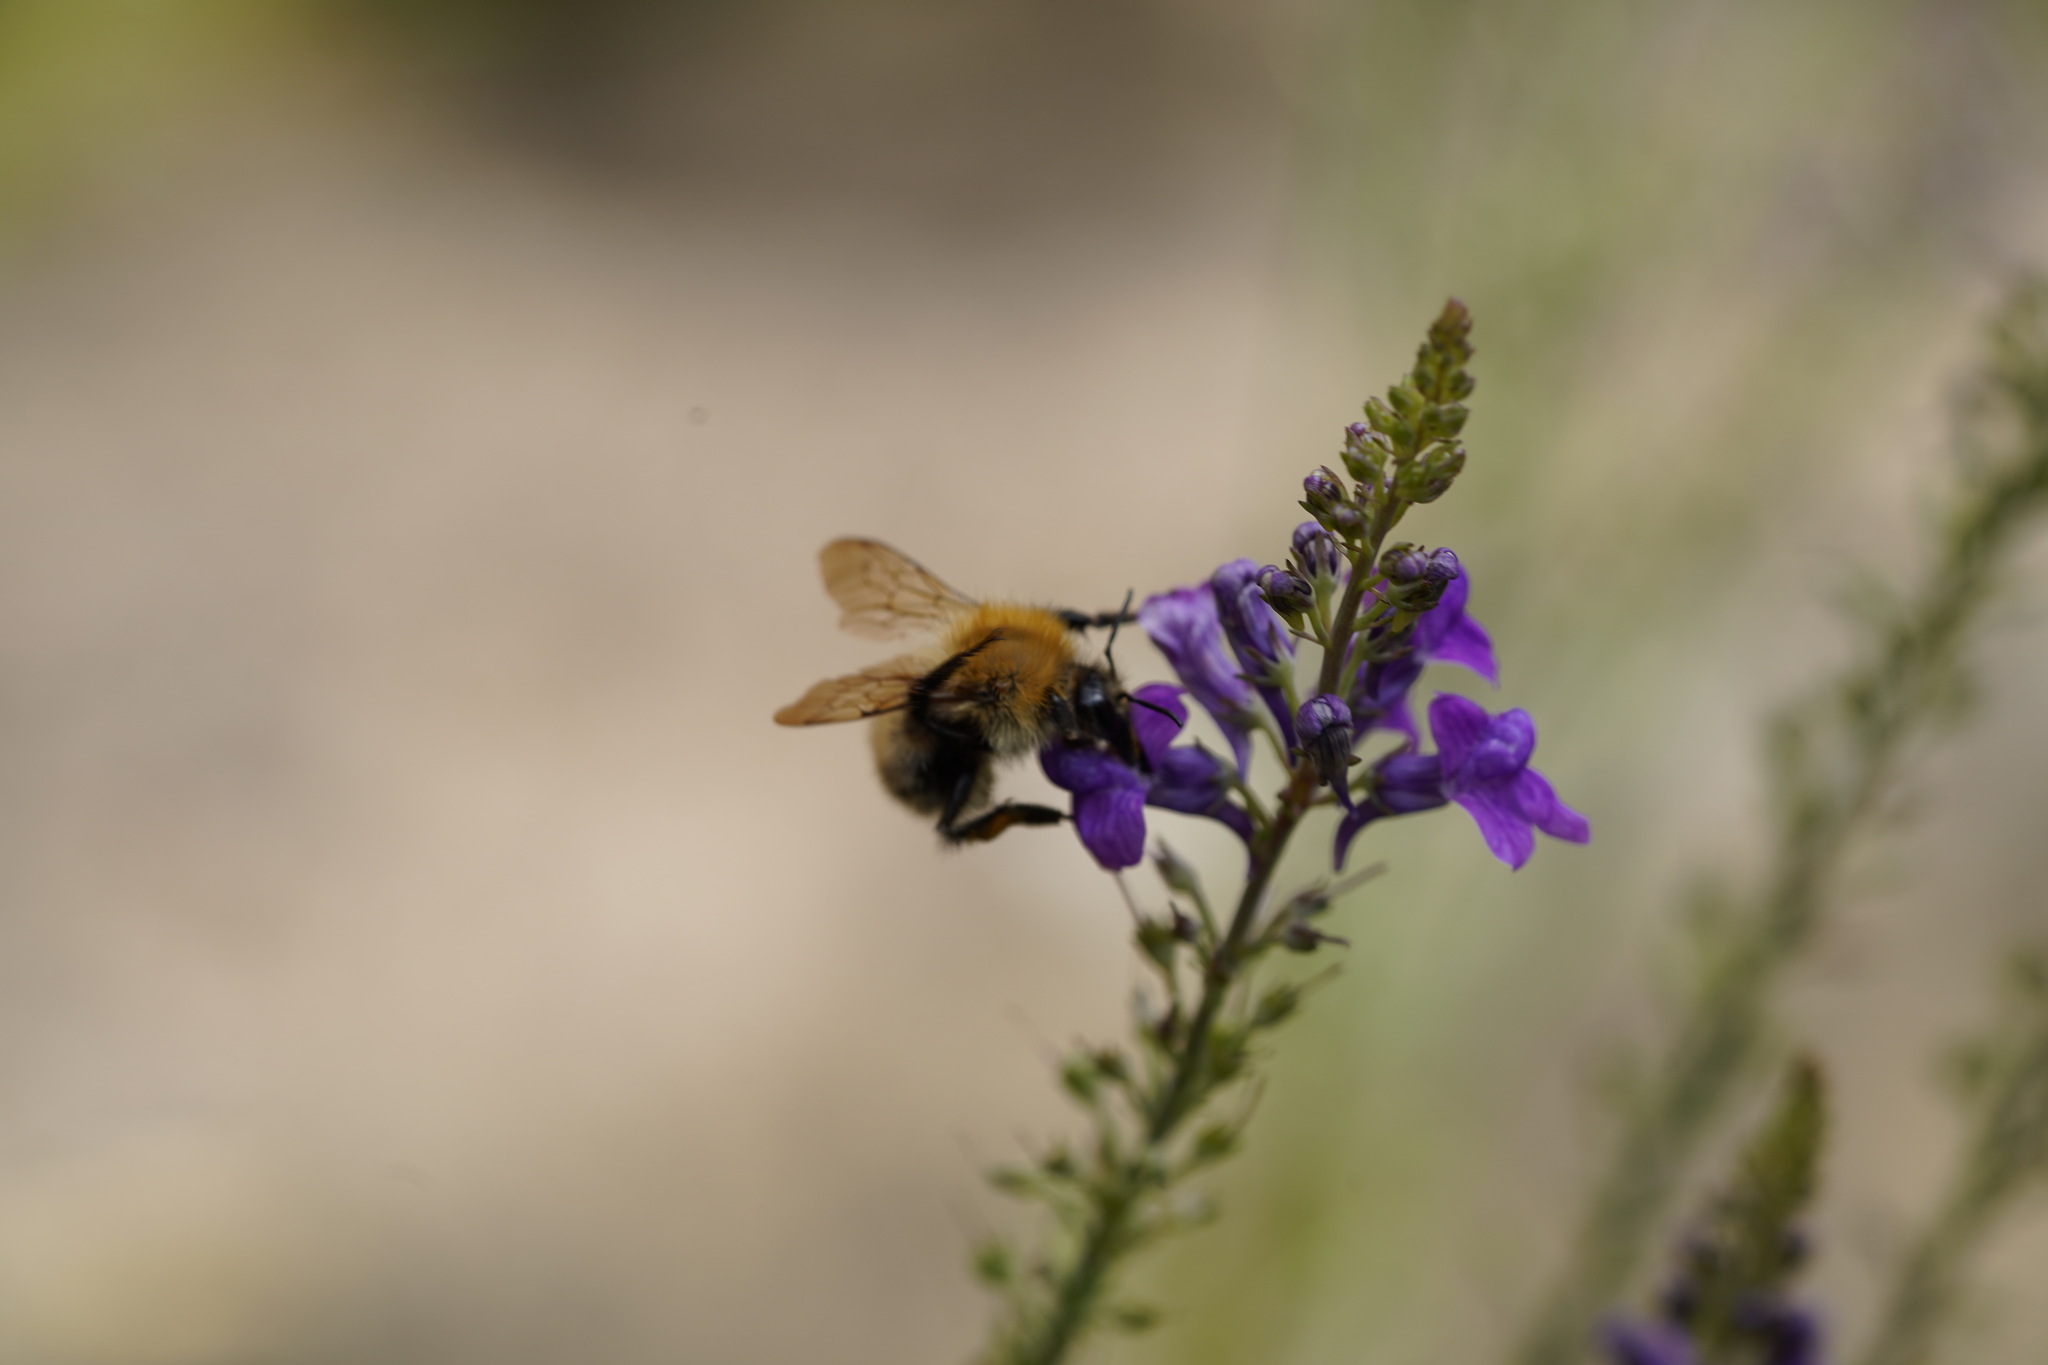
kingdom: Animalia
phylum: Arthropoda
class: Insecta
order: Hymenoptera
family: Apidae
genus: Bombus
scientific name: Bombus pascuorum
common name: Common carder bee
